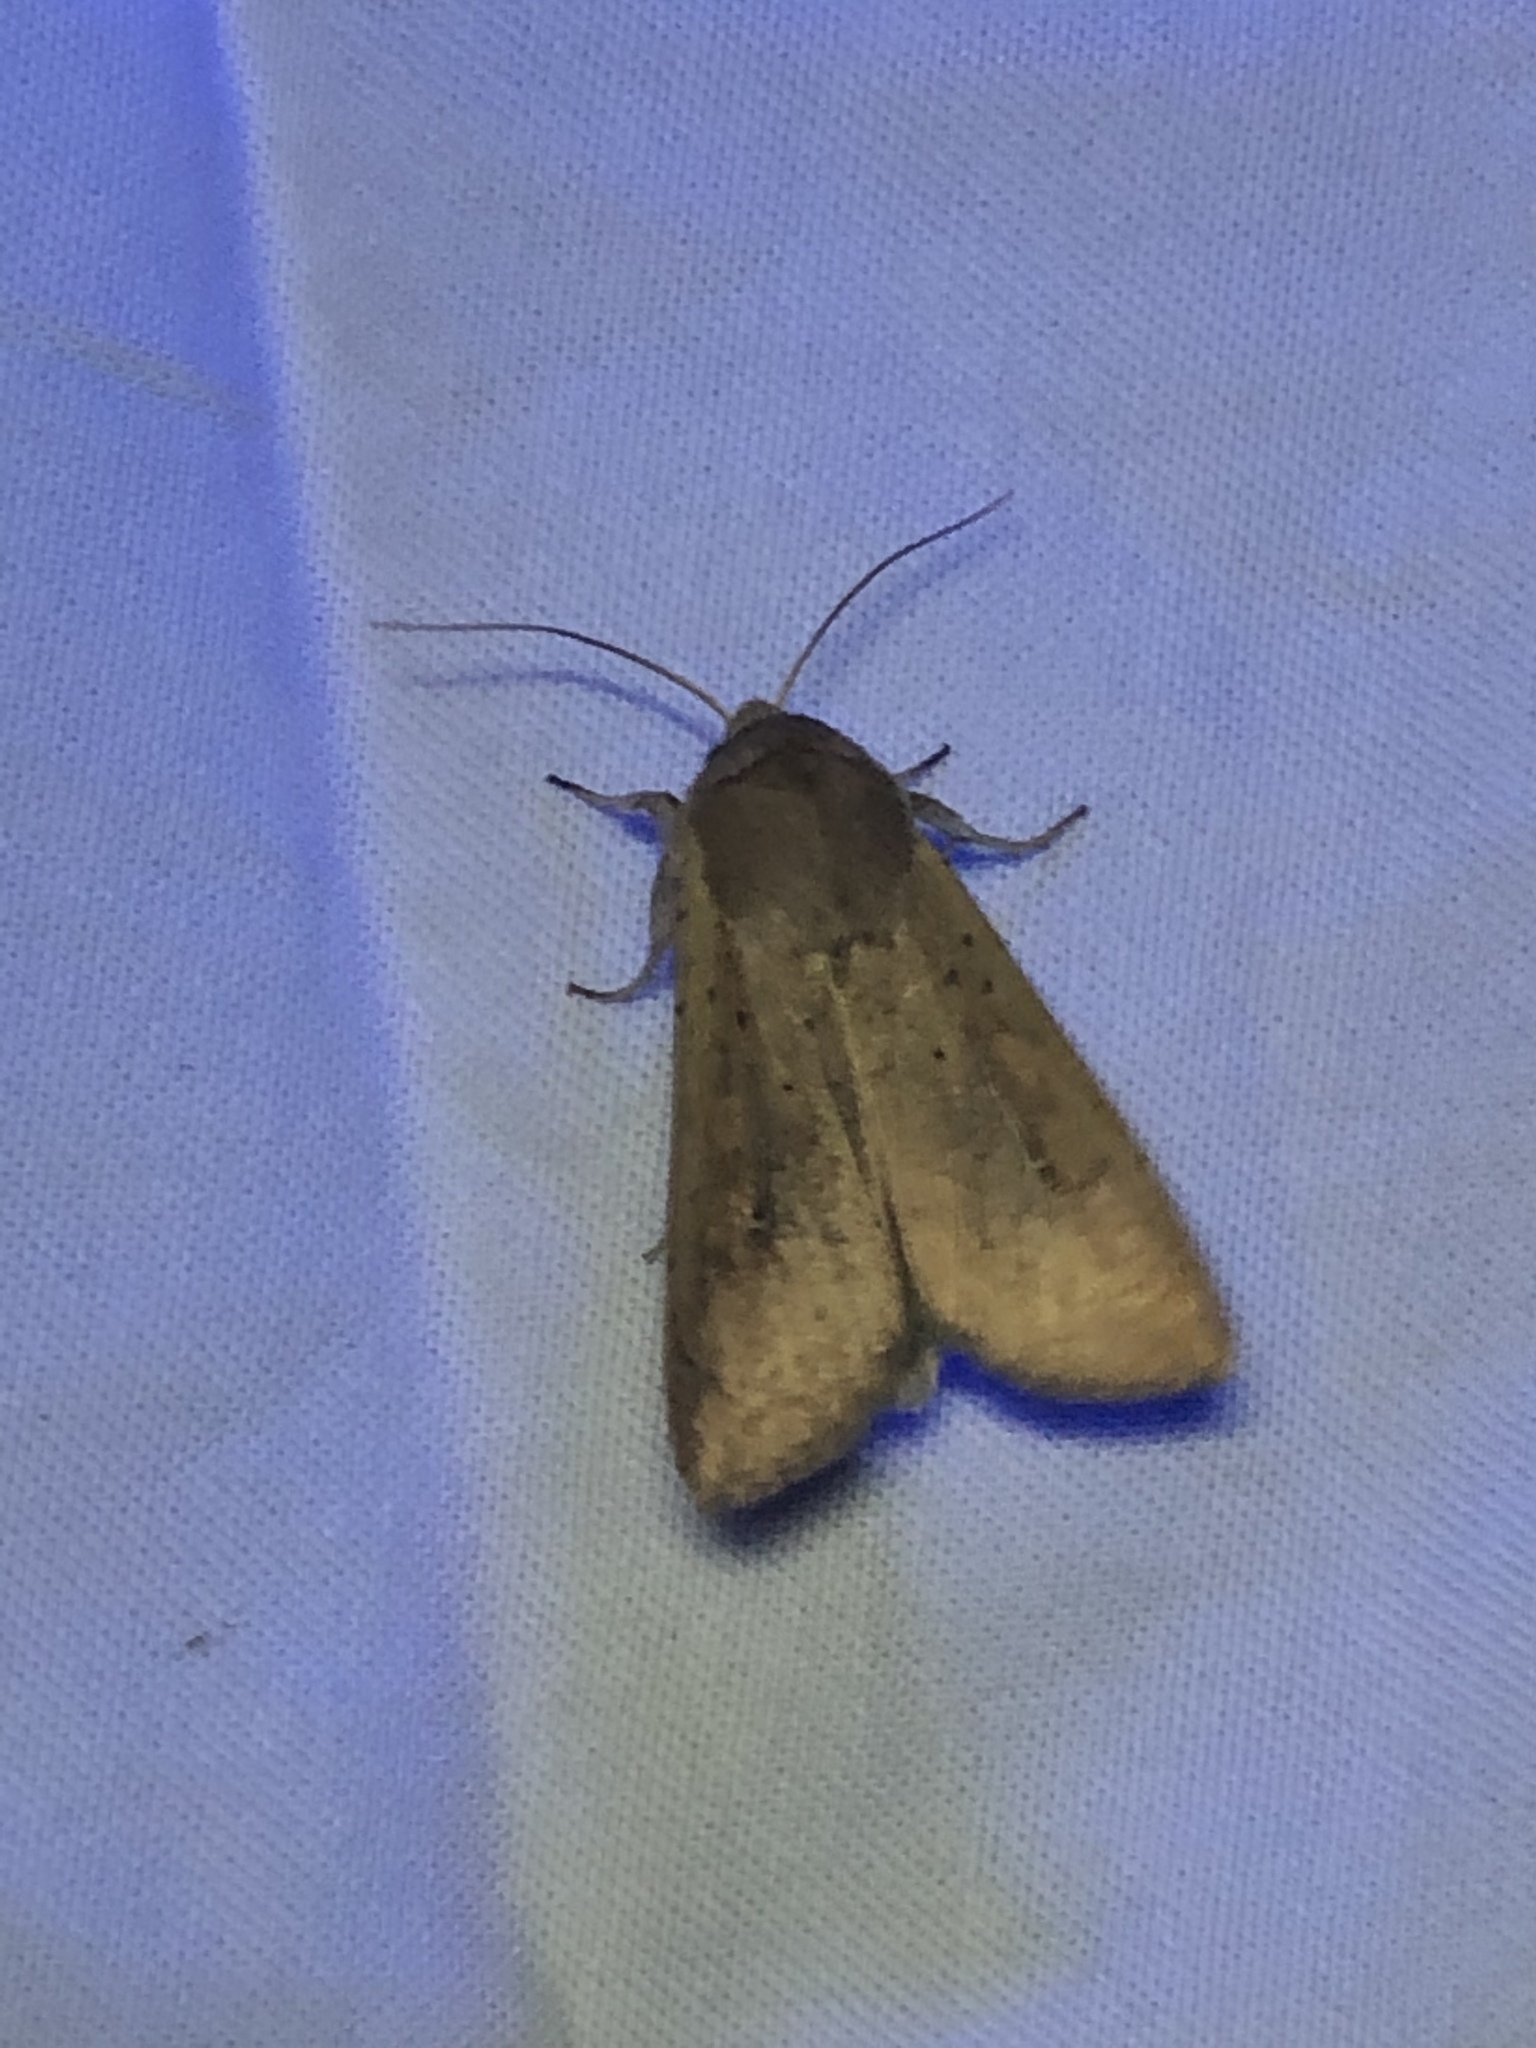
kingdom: Animalia
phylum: Arthropoda
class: Insecta
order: Lepidoptera
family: Noctuidae
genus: Mythimna
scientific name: Mythimna unipuncta
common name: White-speck
